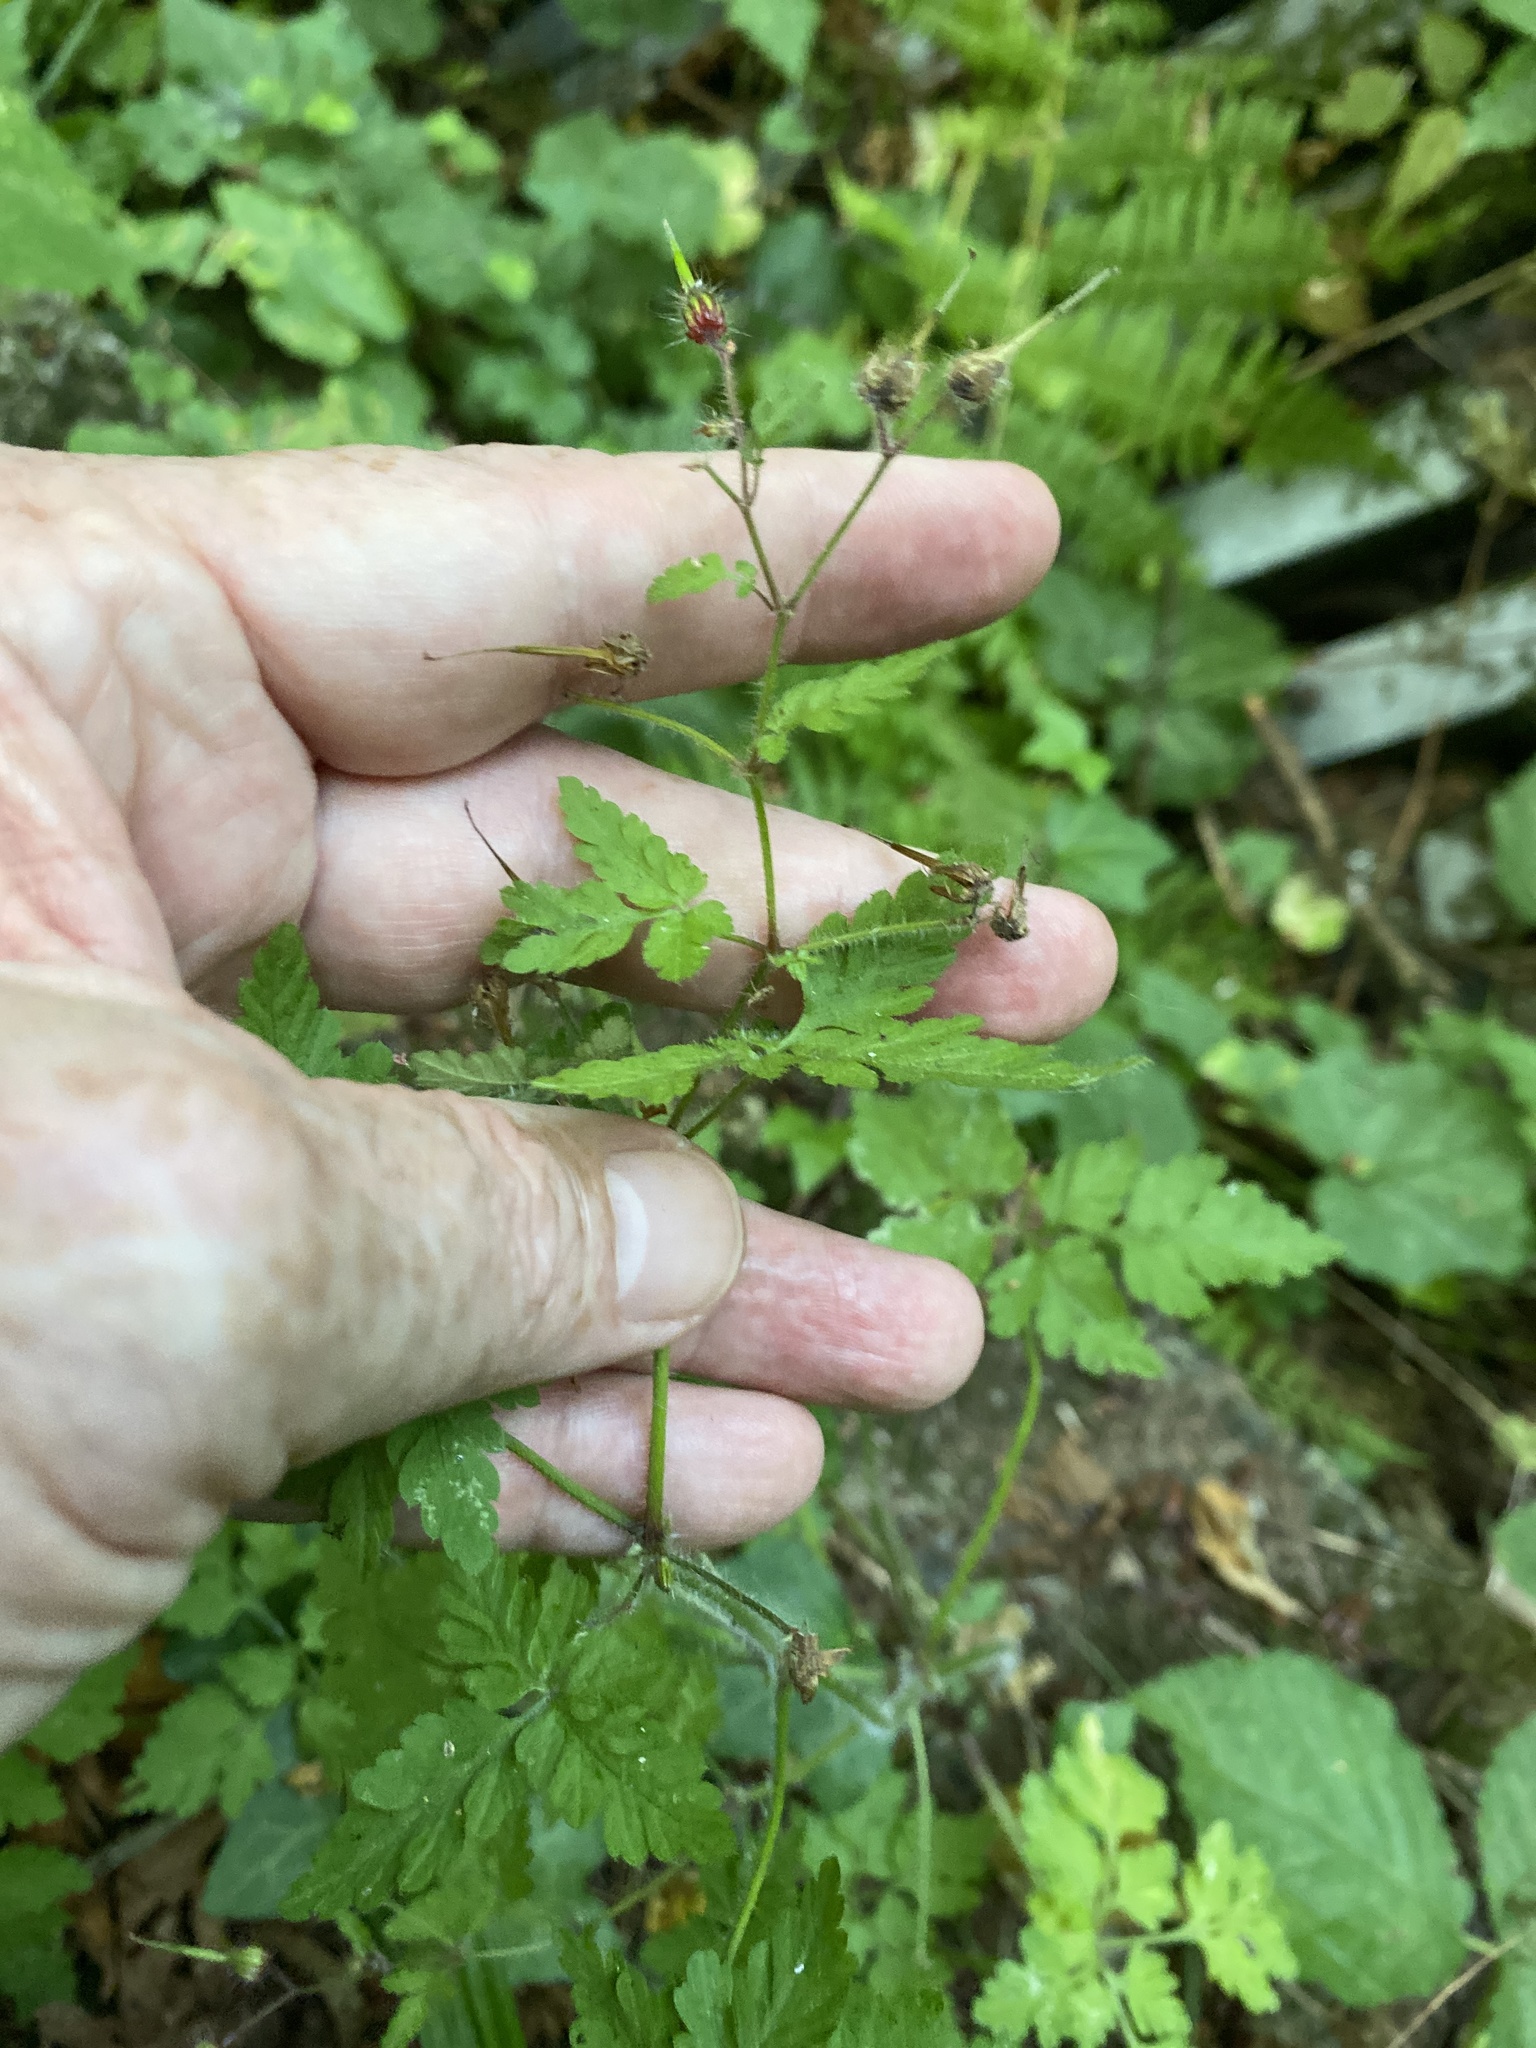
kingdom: Plantae
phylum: Tracheophyta
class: Magnoliopsida
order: Geraniales
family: Geraniaceae
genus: Geranium
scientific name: Geranium robertianum
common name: Herb-robert
